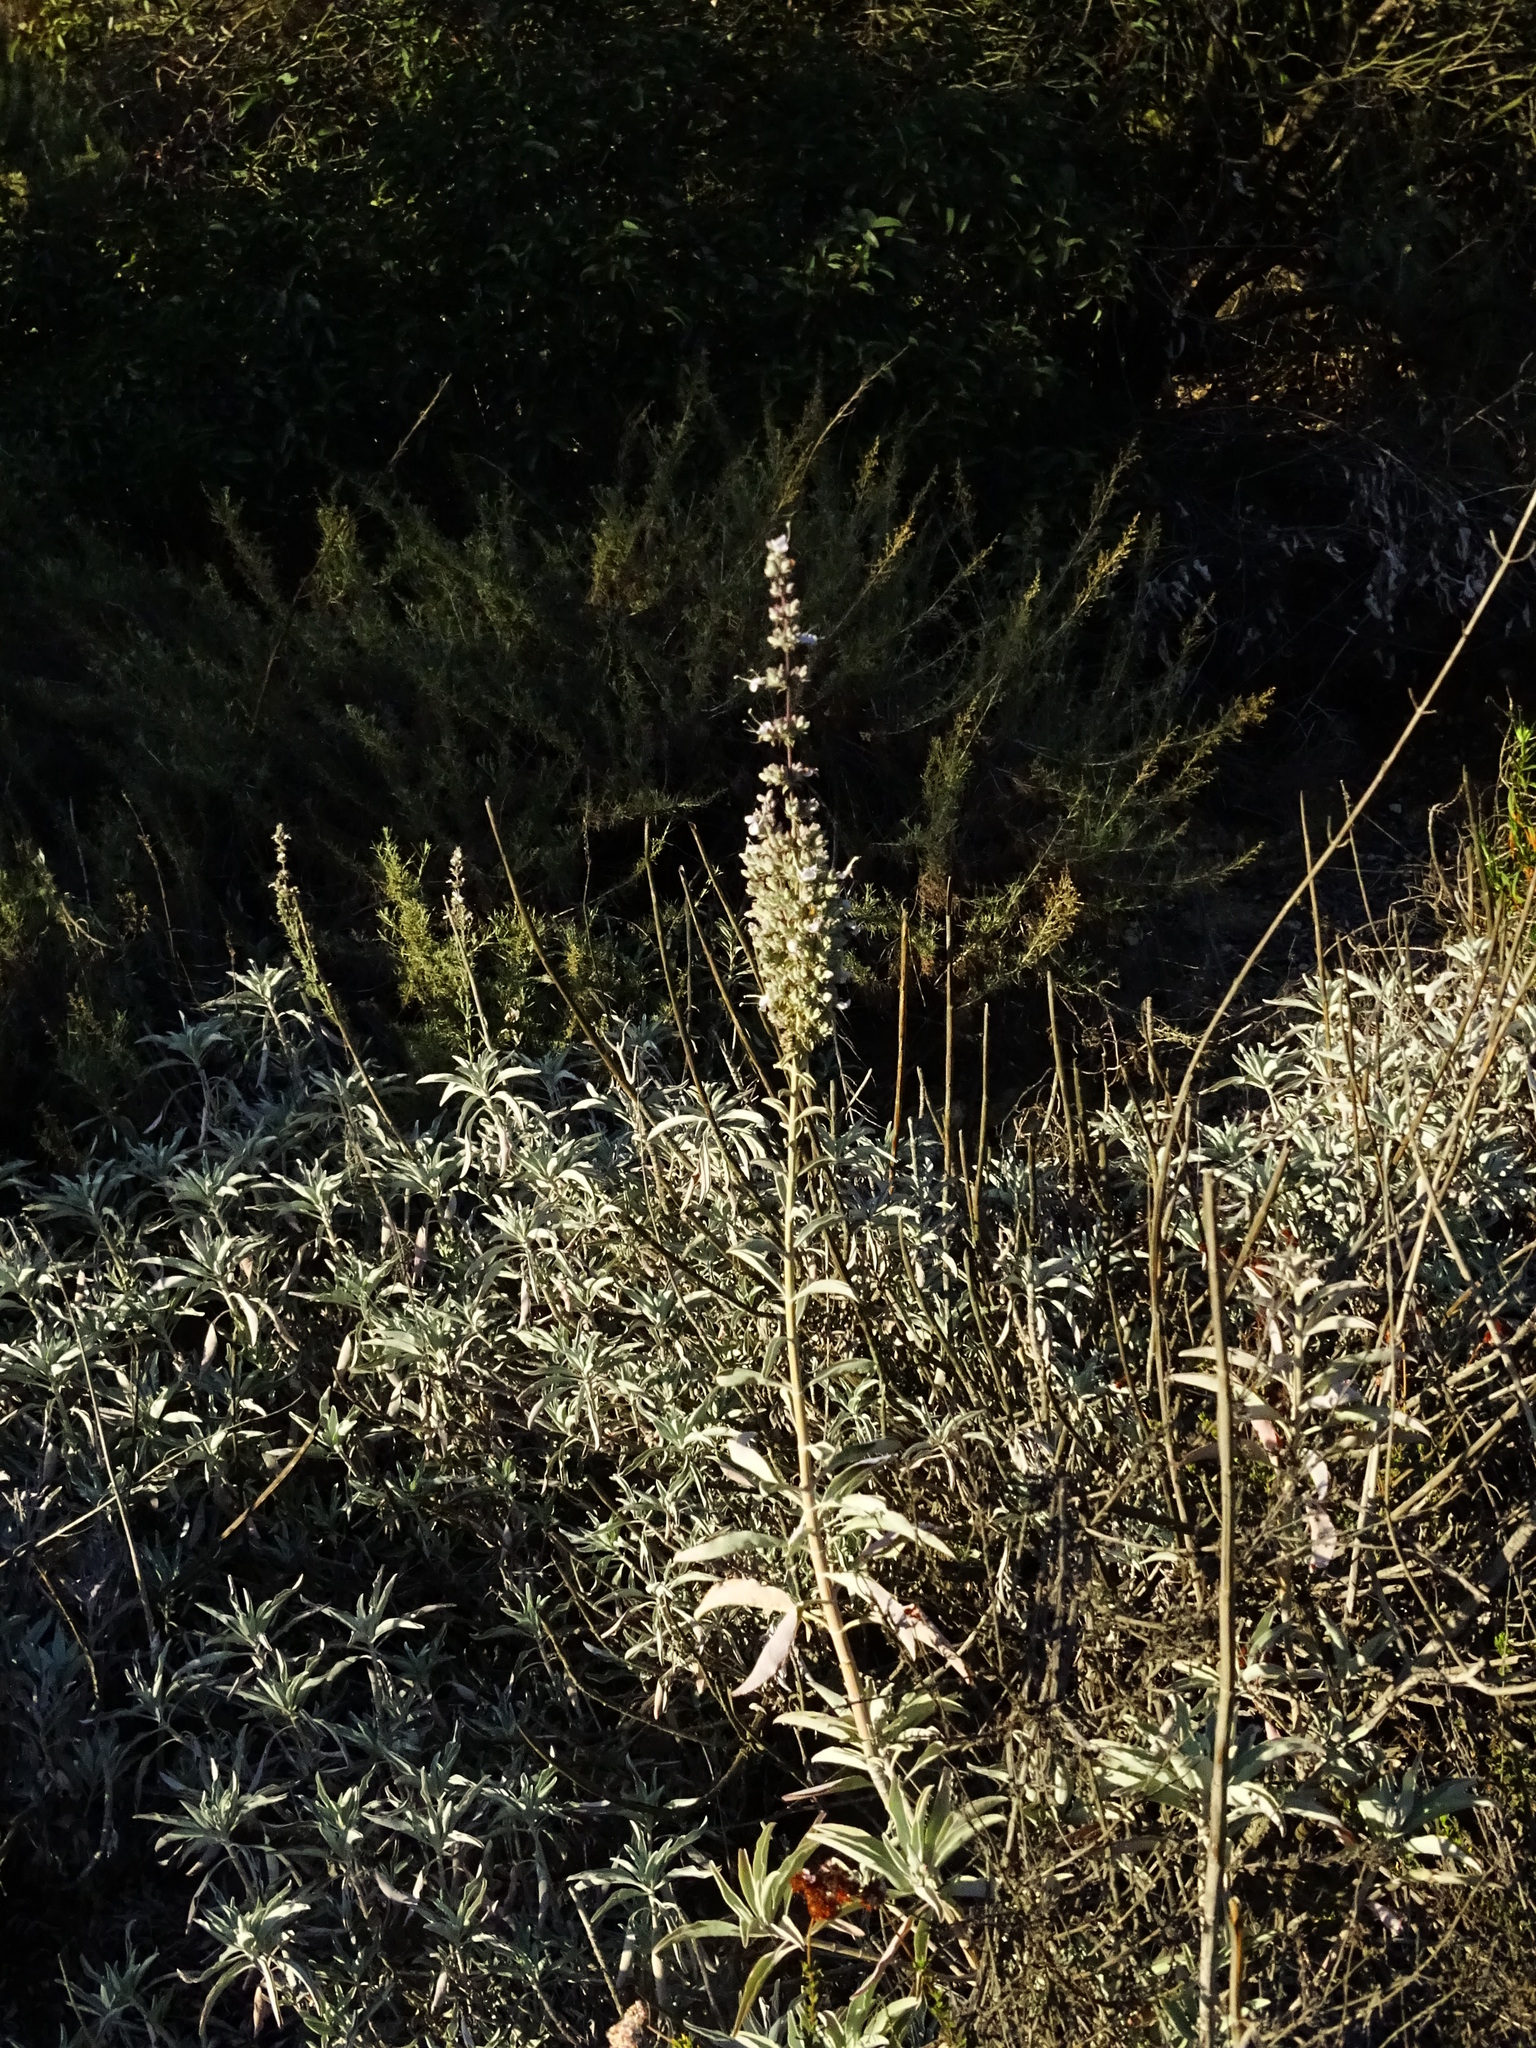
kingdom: Plantae
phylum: Tracheophyta
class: Magnoliopsida
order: Lamiales
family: Lamiaceae
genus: Salvia
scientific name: Salvia apiana
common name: White sage
